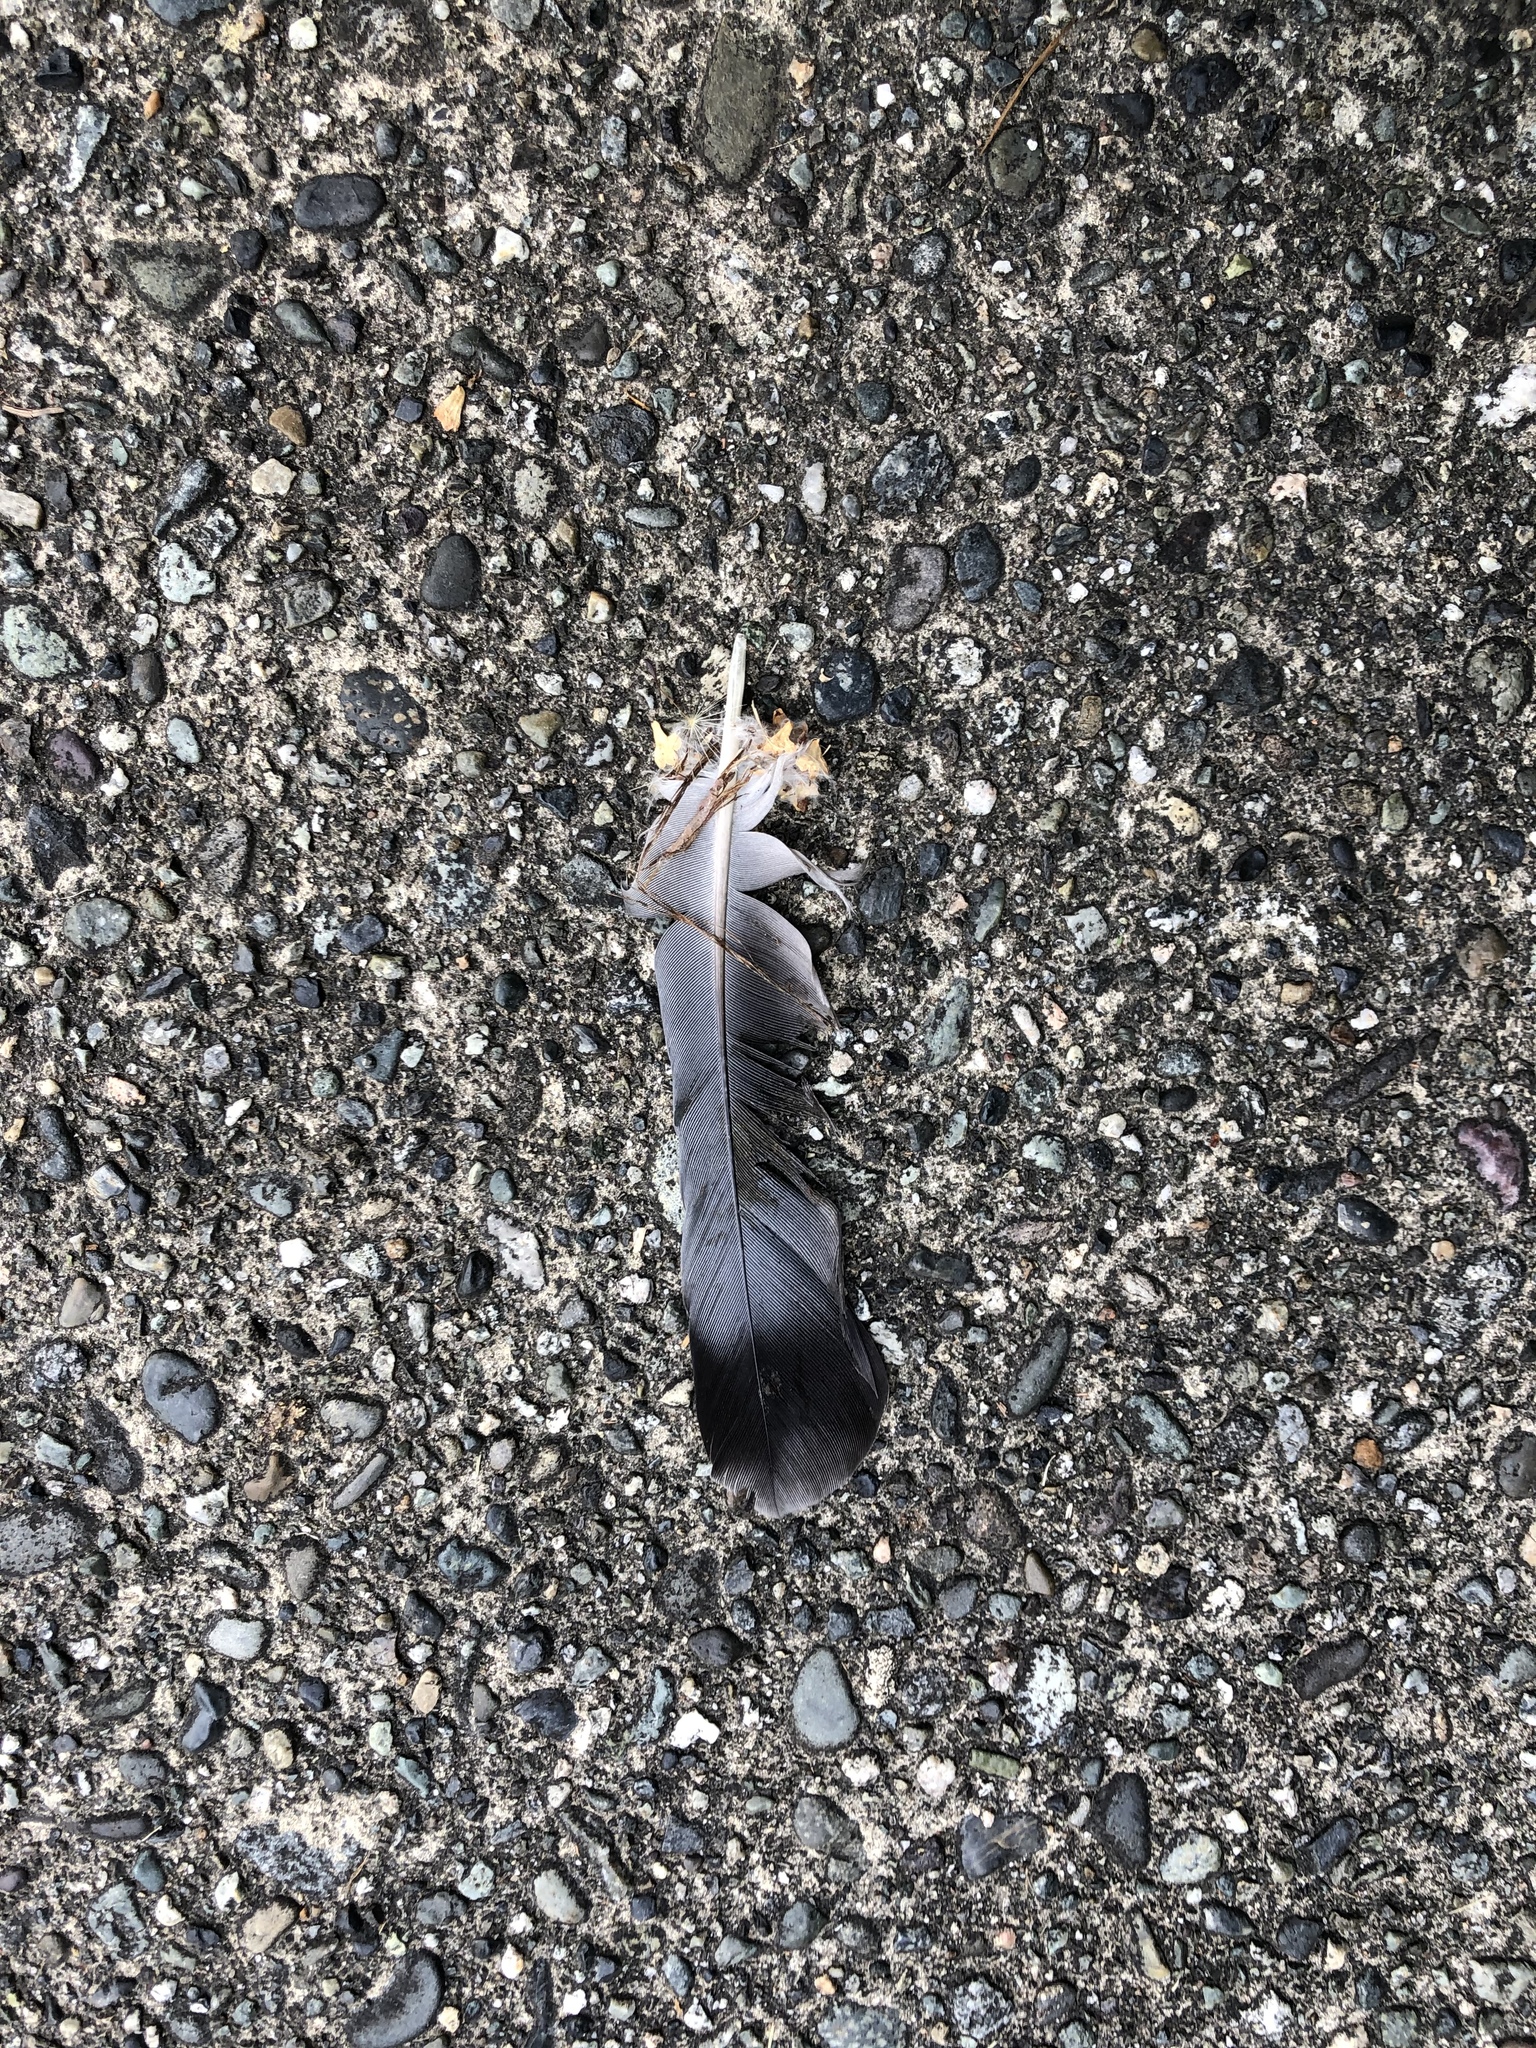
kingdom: Animalia
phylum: Chordata
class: Aves
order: Columbiformes
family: Columbidae
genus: Columba
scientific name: Columba livia
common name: Rock pigeon
